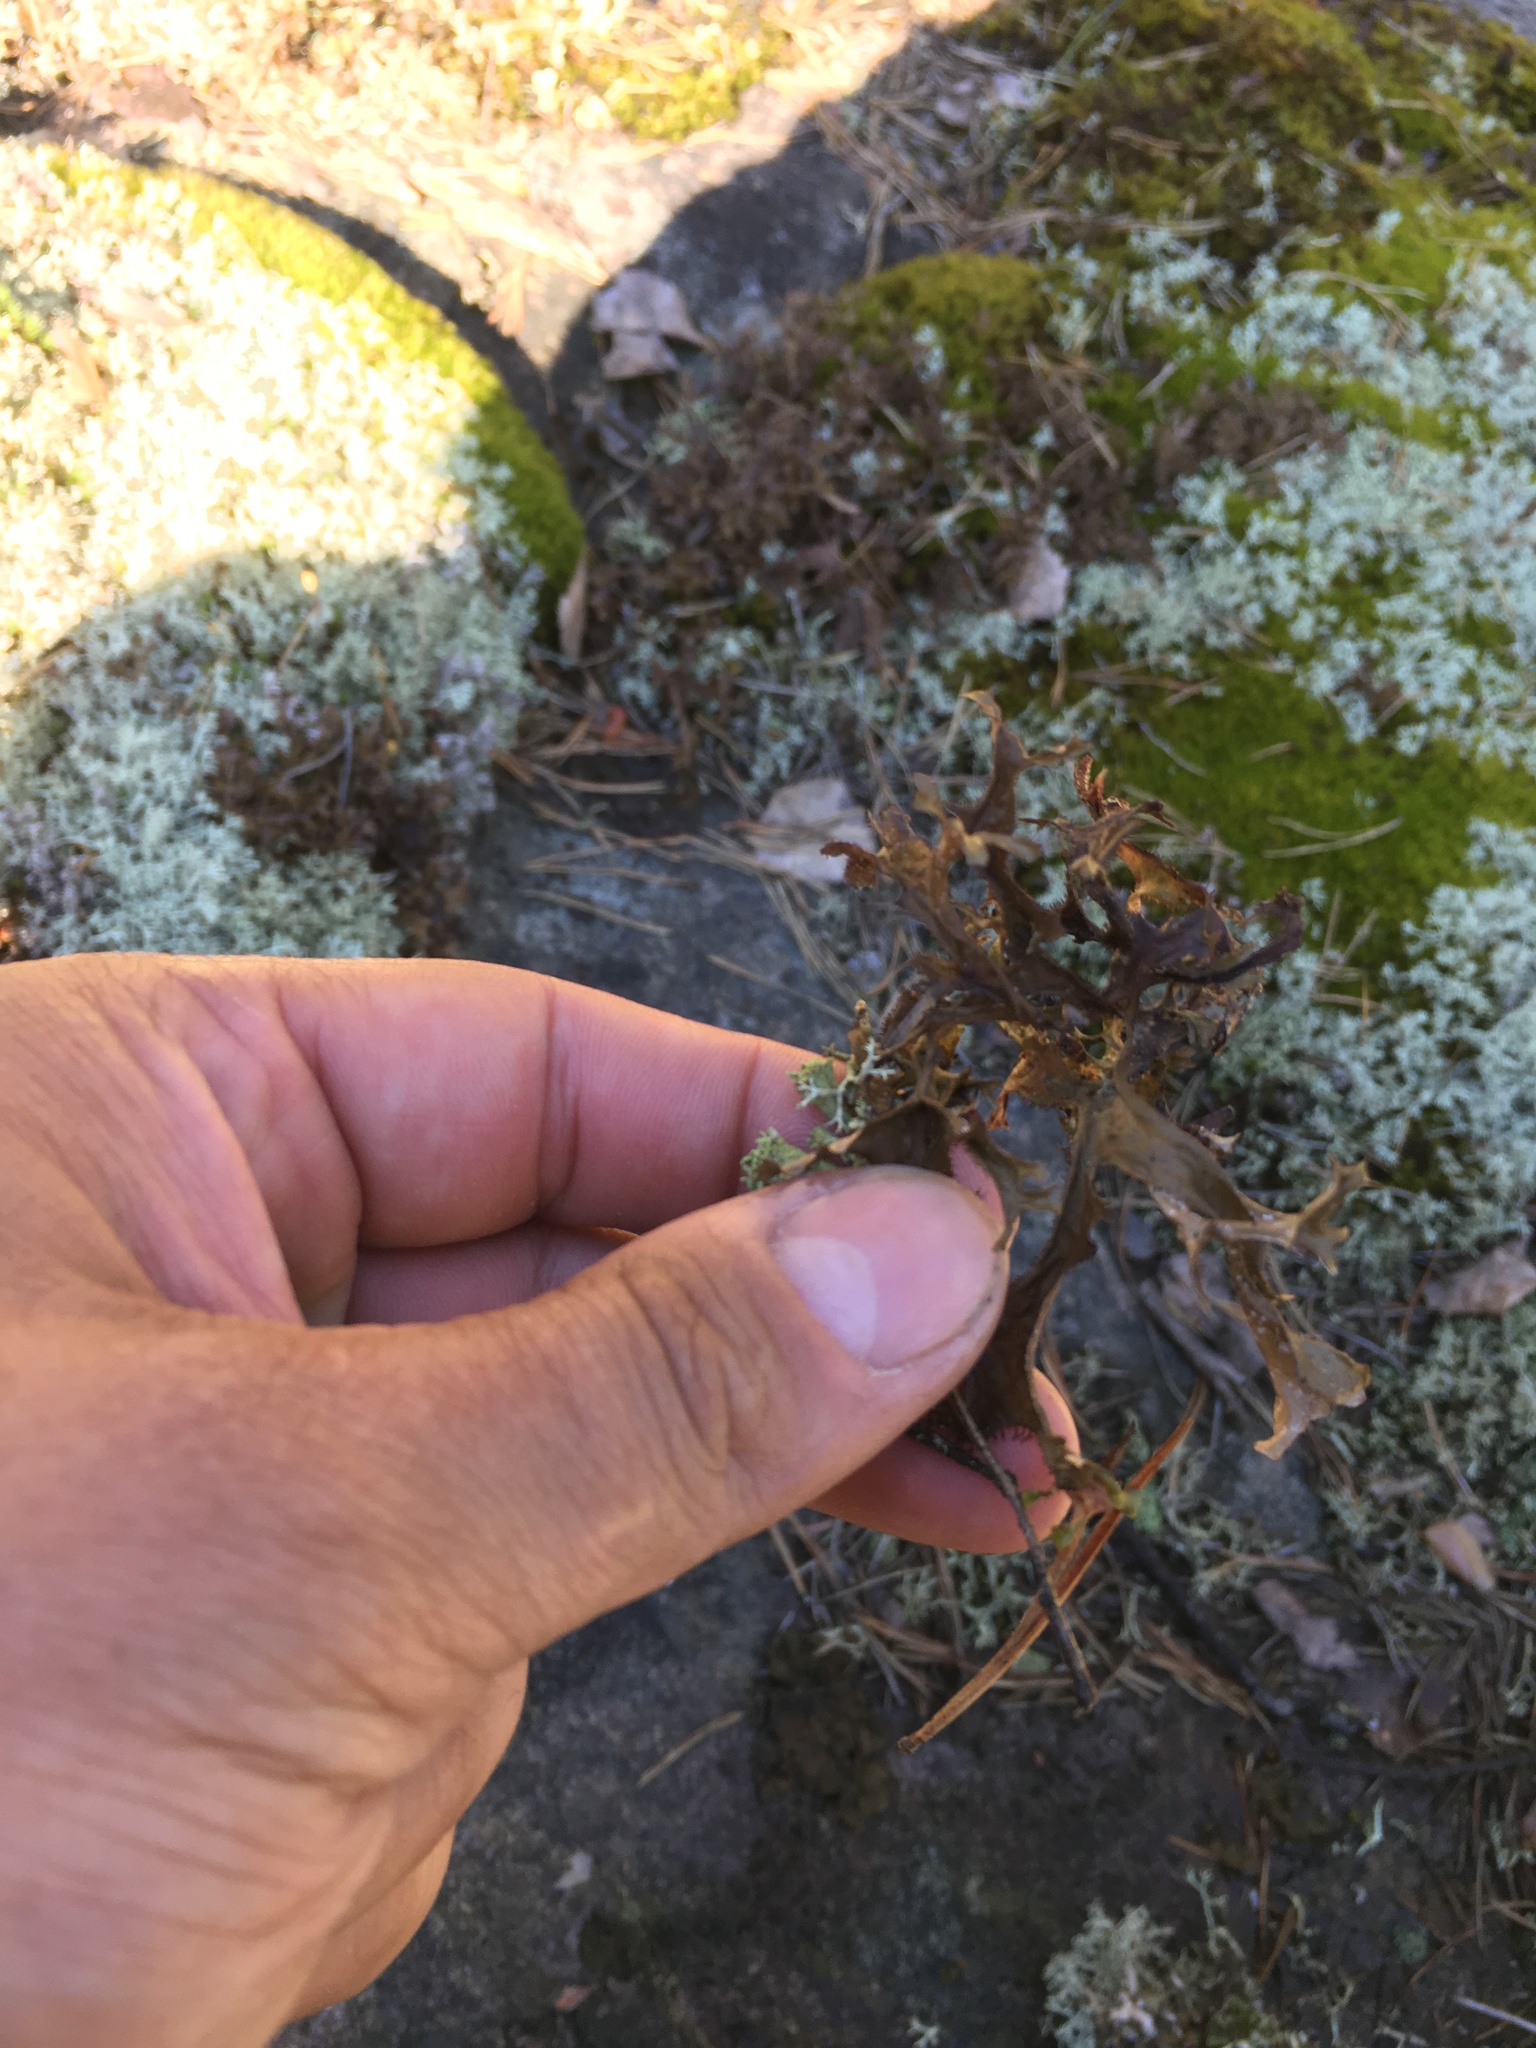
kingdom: Fungi
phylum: Ascomycota
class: Lecanoromycetes
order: Lecanorales
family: Parmeliaceae
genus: Cetraria
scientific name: Cetraria islandica
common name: Iceland lichen
